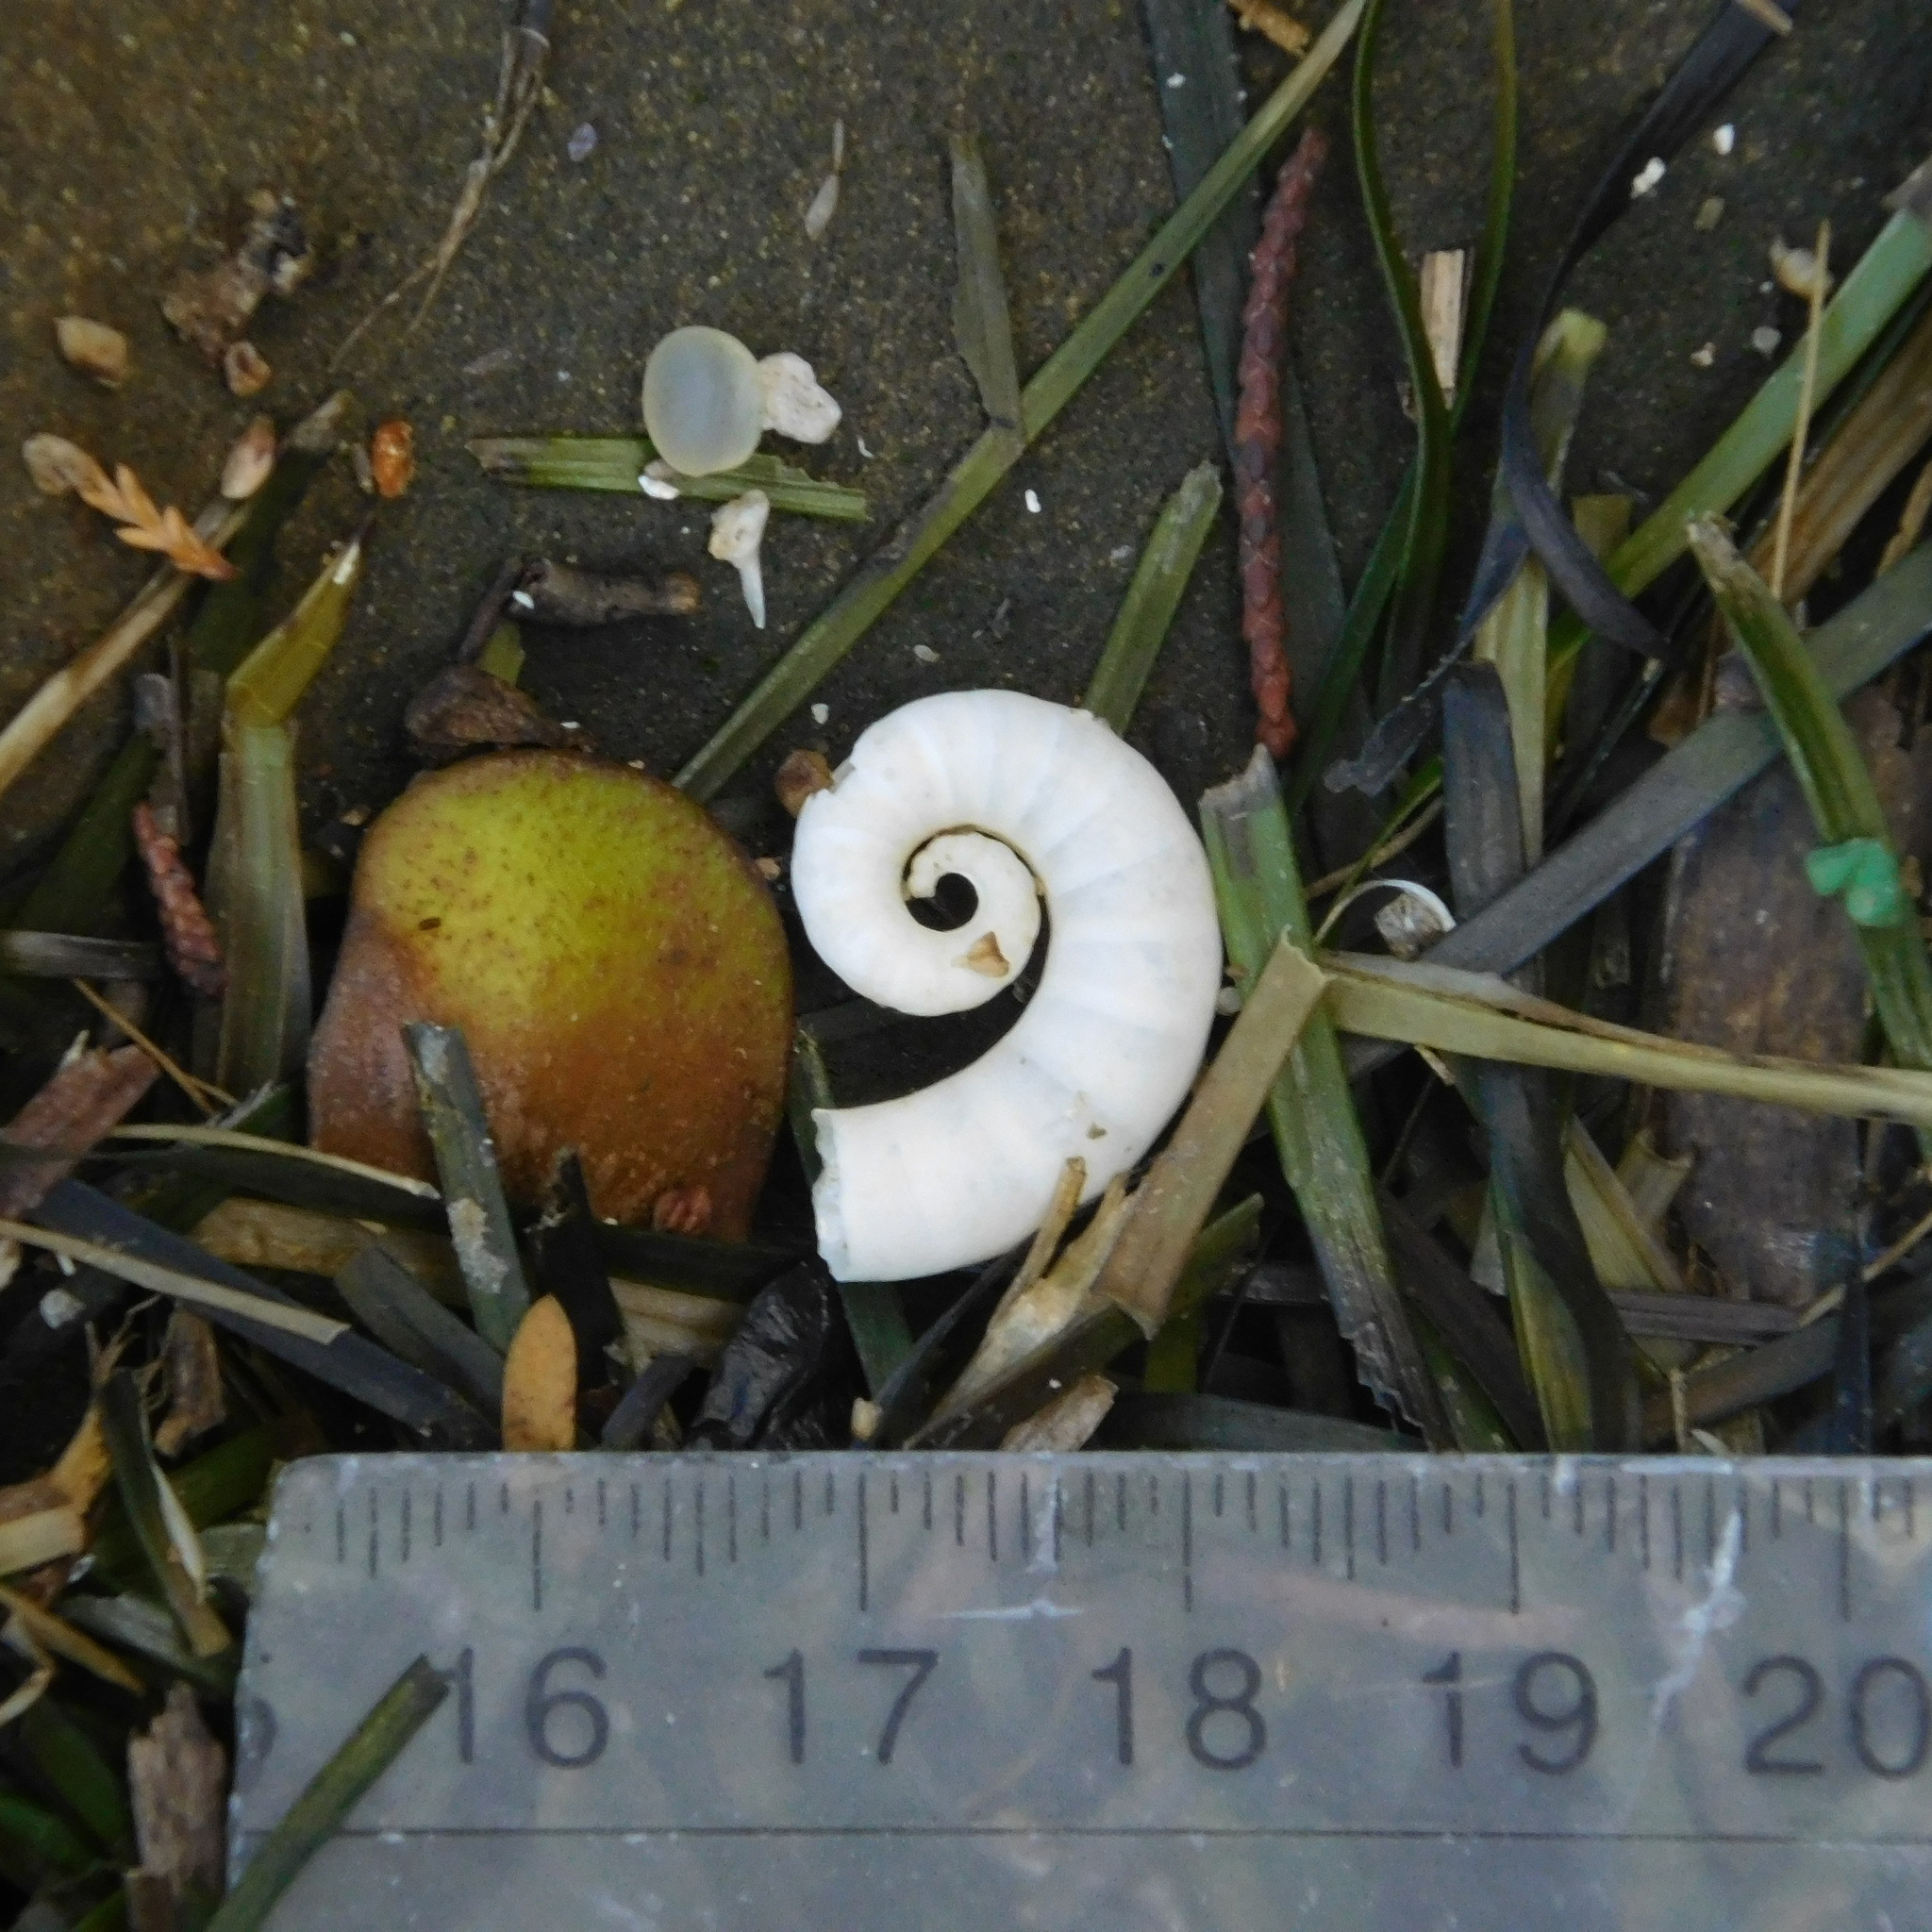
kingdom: Animalia
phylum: Mollusca
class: Cephalopoda
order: Spirulida
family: Spirulidae
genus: Spirula
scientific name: Spirula spirula
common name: Ram's horn squid
